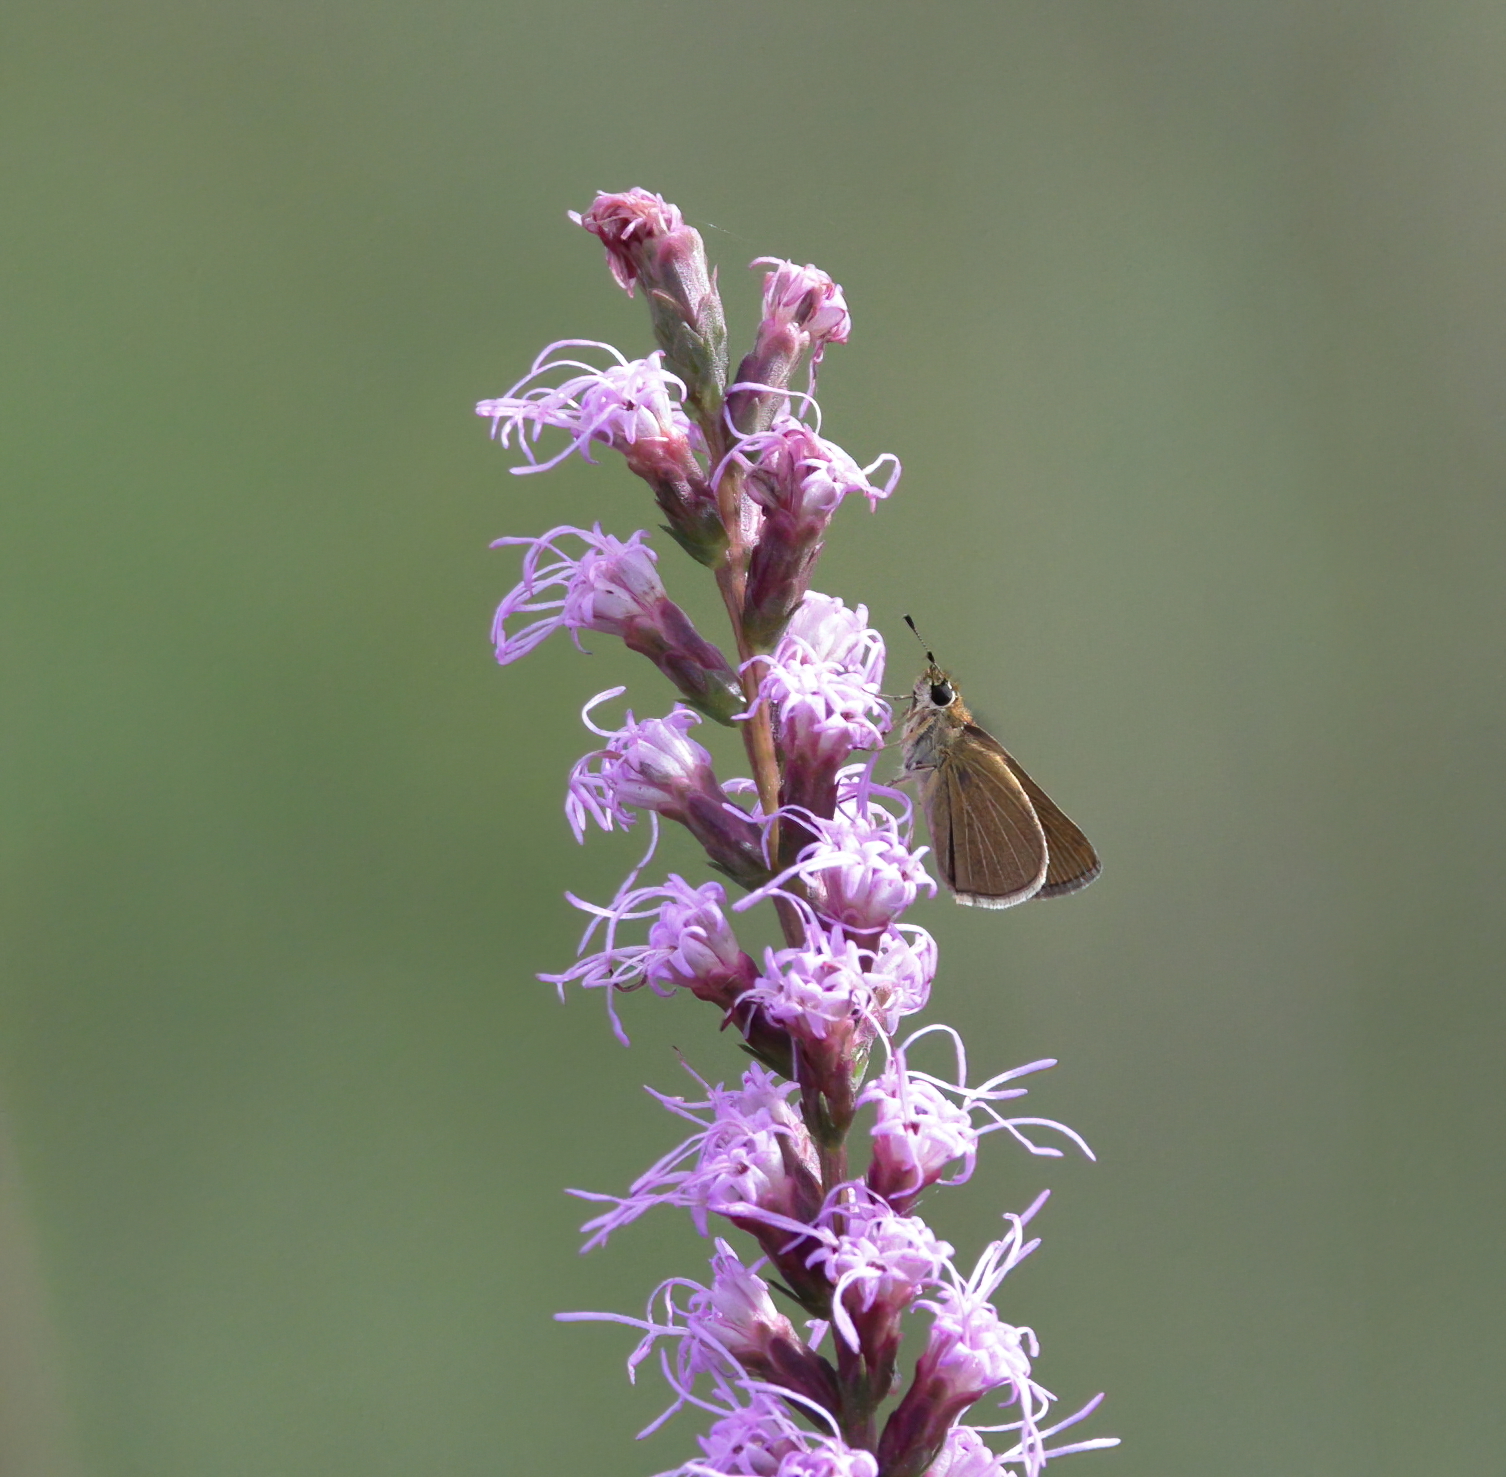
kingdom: Animalia
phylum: Arthropoda
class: Insecta
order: Lepidoptera
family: Hesperiidae
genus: Nastra
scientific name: Nastra lherminier
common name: Swarthy skipper
